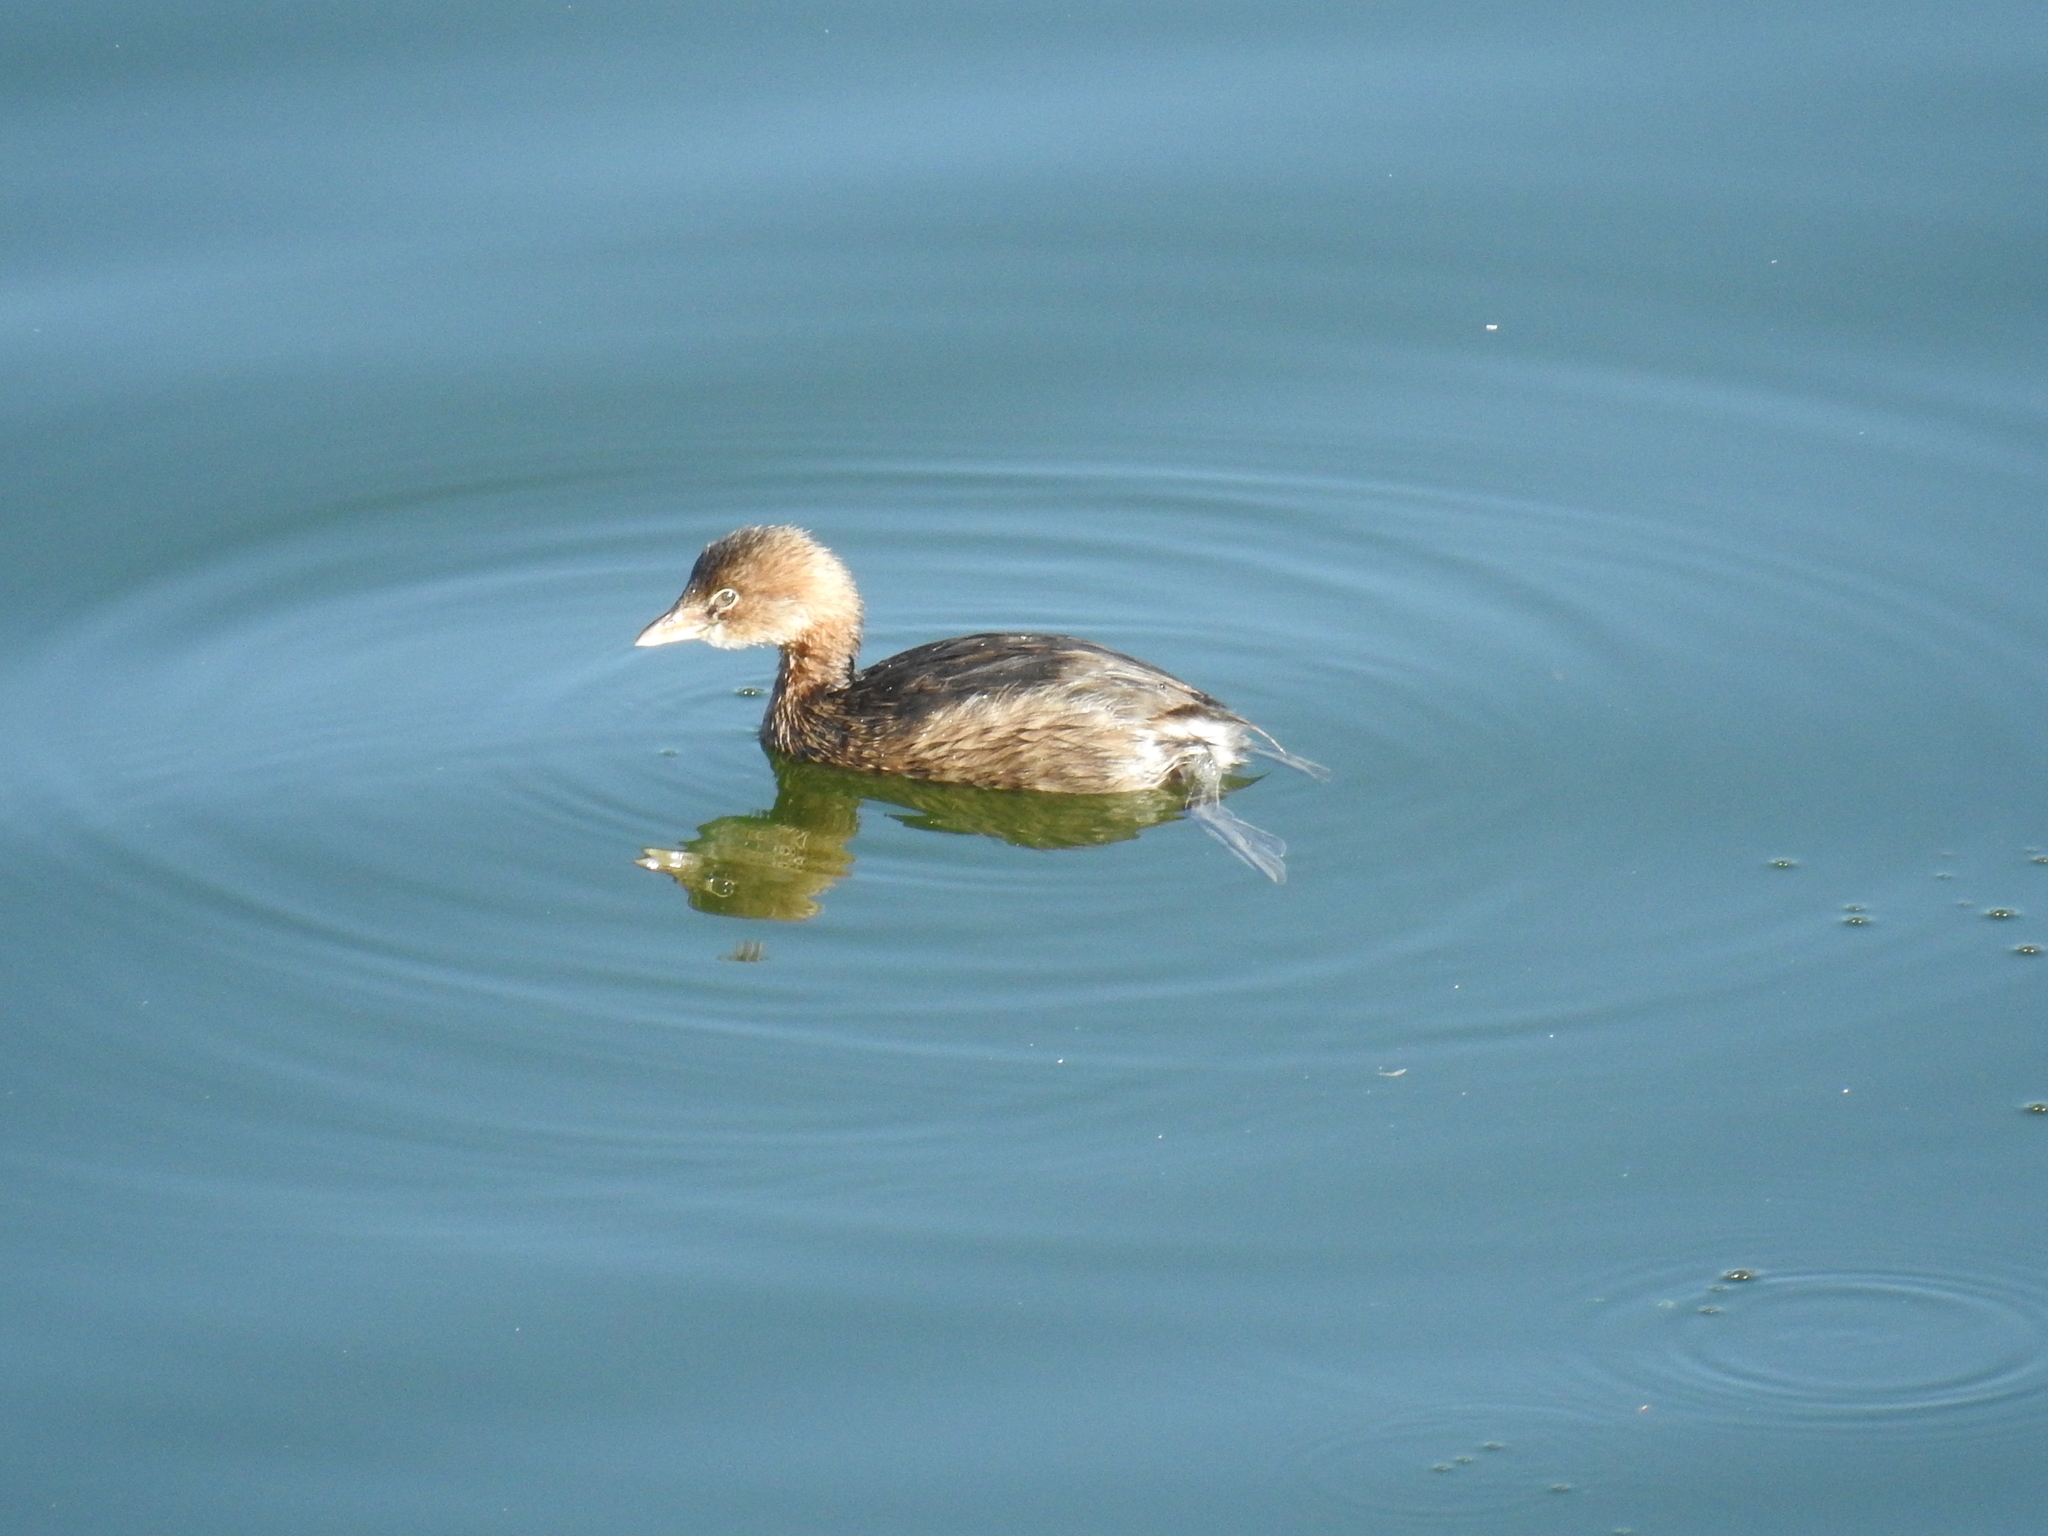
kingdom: Animalia
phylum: Chordata
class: Aves
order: Podicipediformes
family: Podicipedidae
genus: Podilymbus
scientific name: Podilymbus podiceps
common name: Pied-billed grebe
